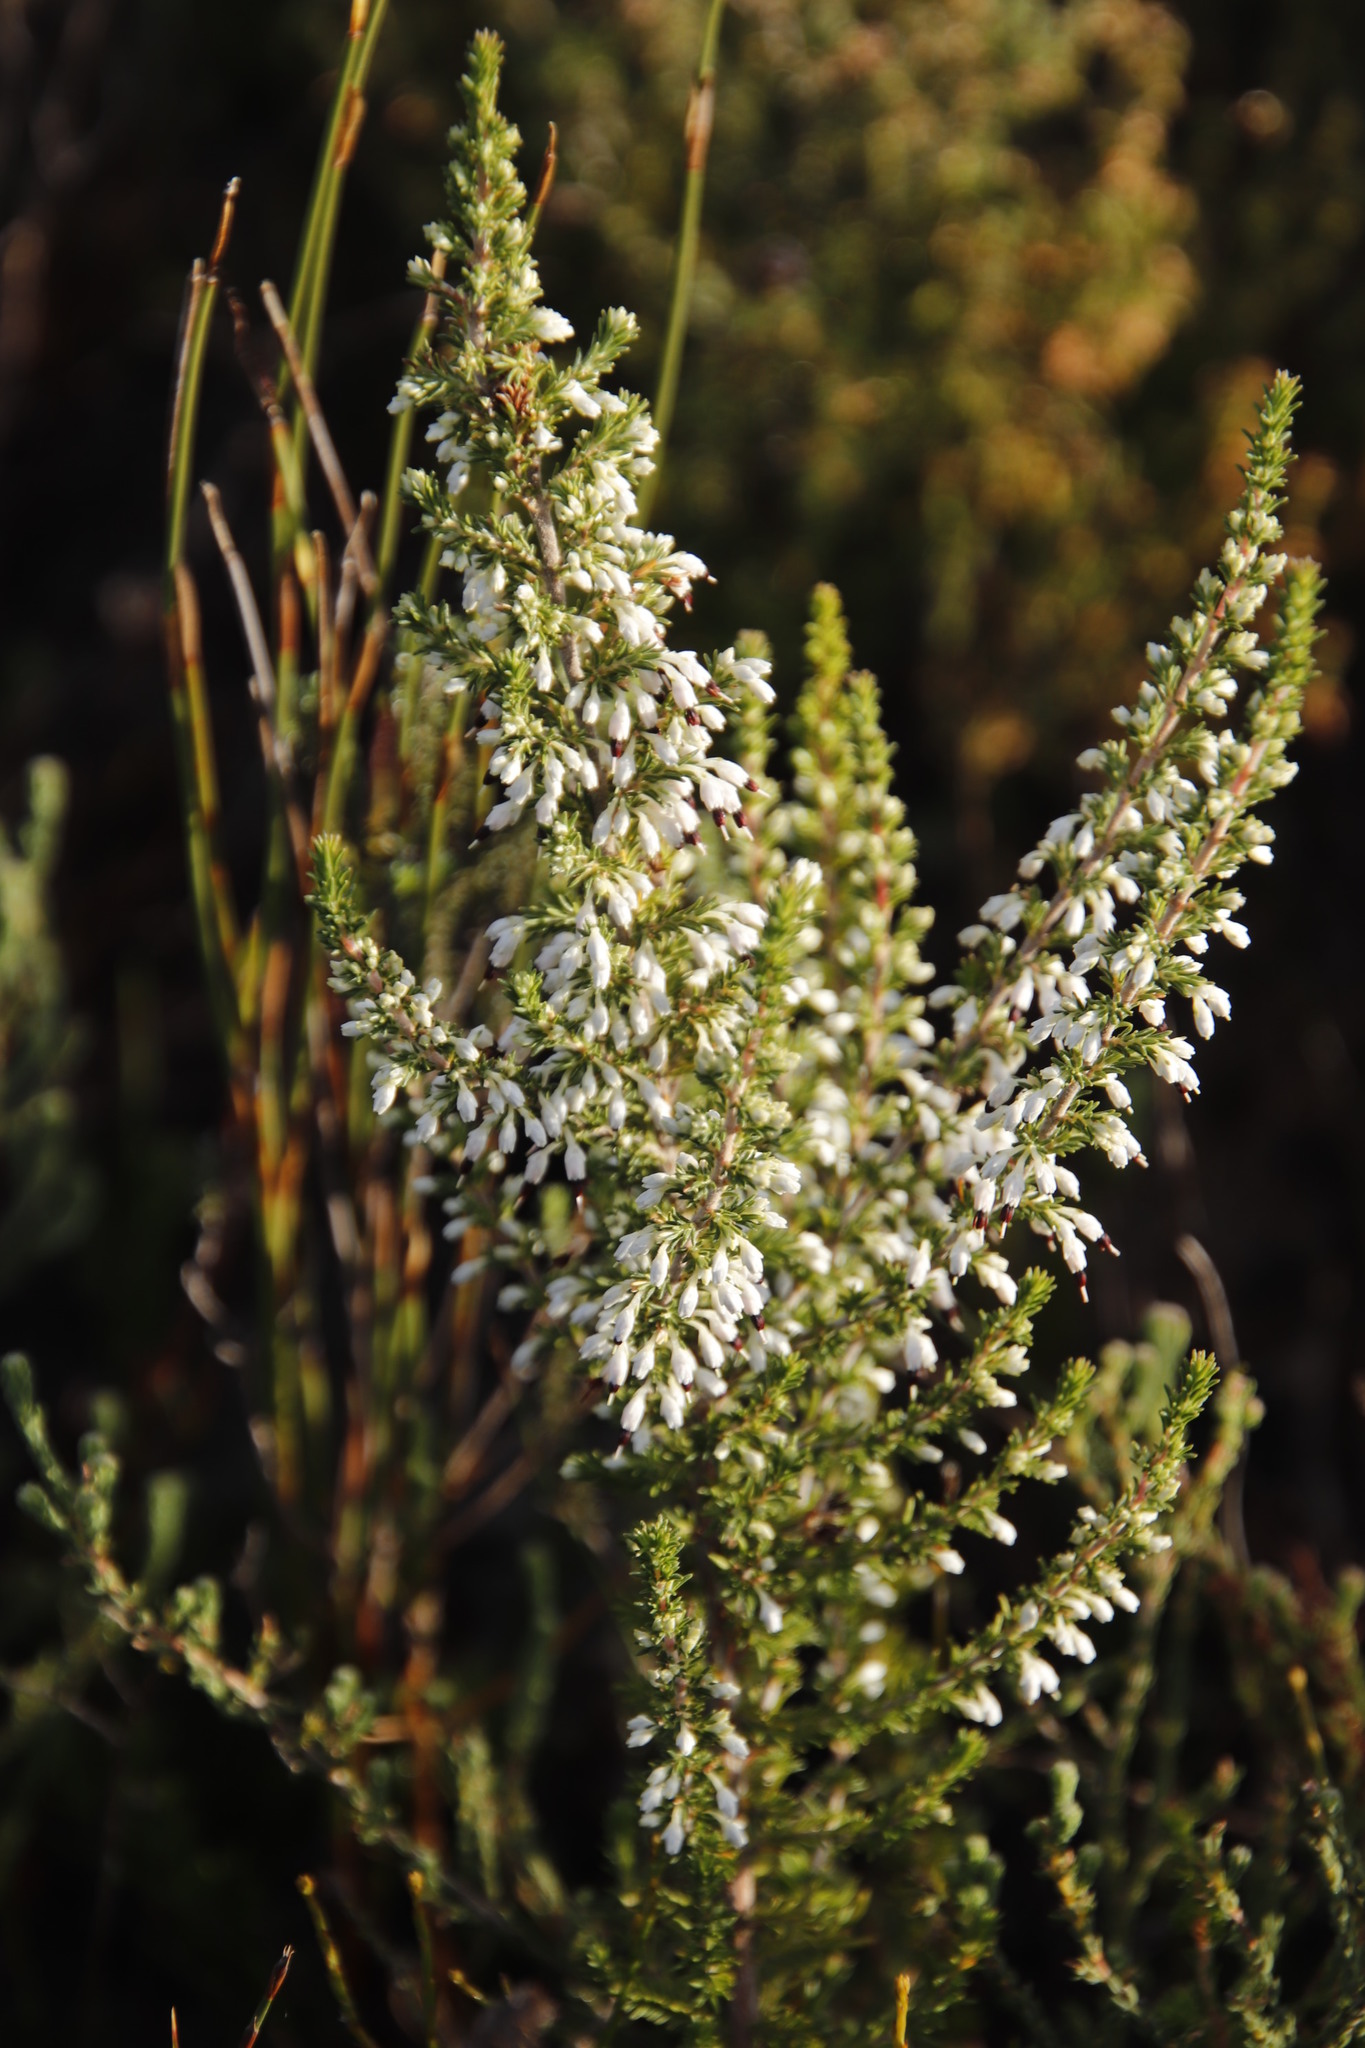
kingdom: Plantae
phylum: Tracheophyta
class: Magnoliopsida
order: Ericales
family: Ericaceae
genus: Erica
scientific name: Erica imbricata
